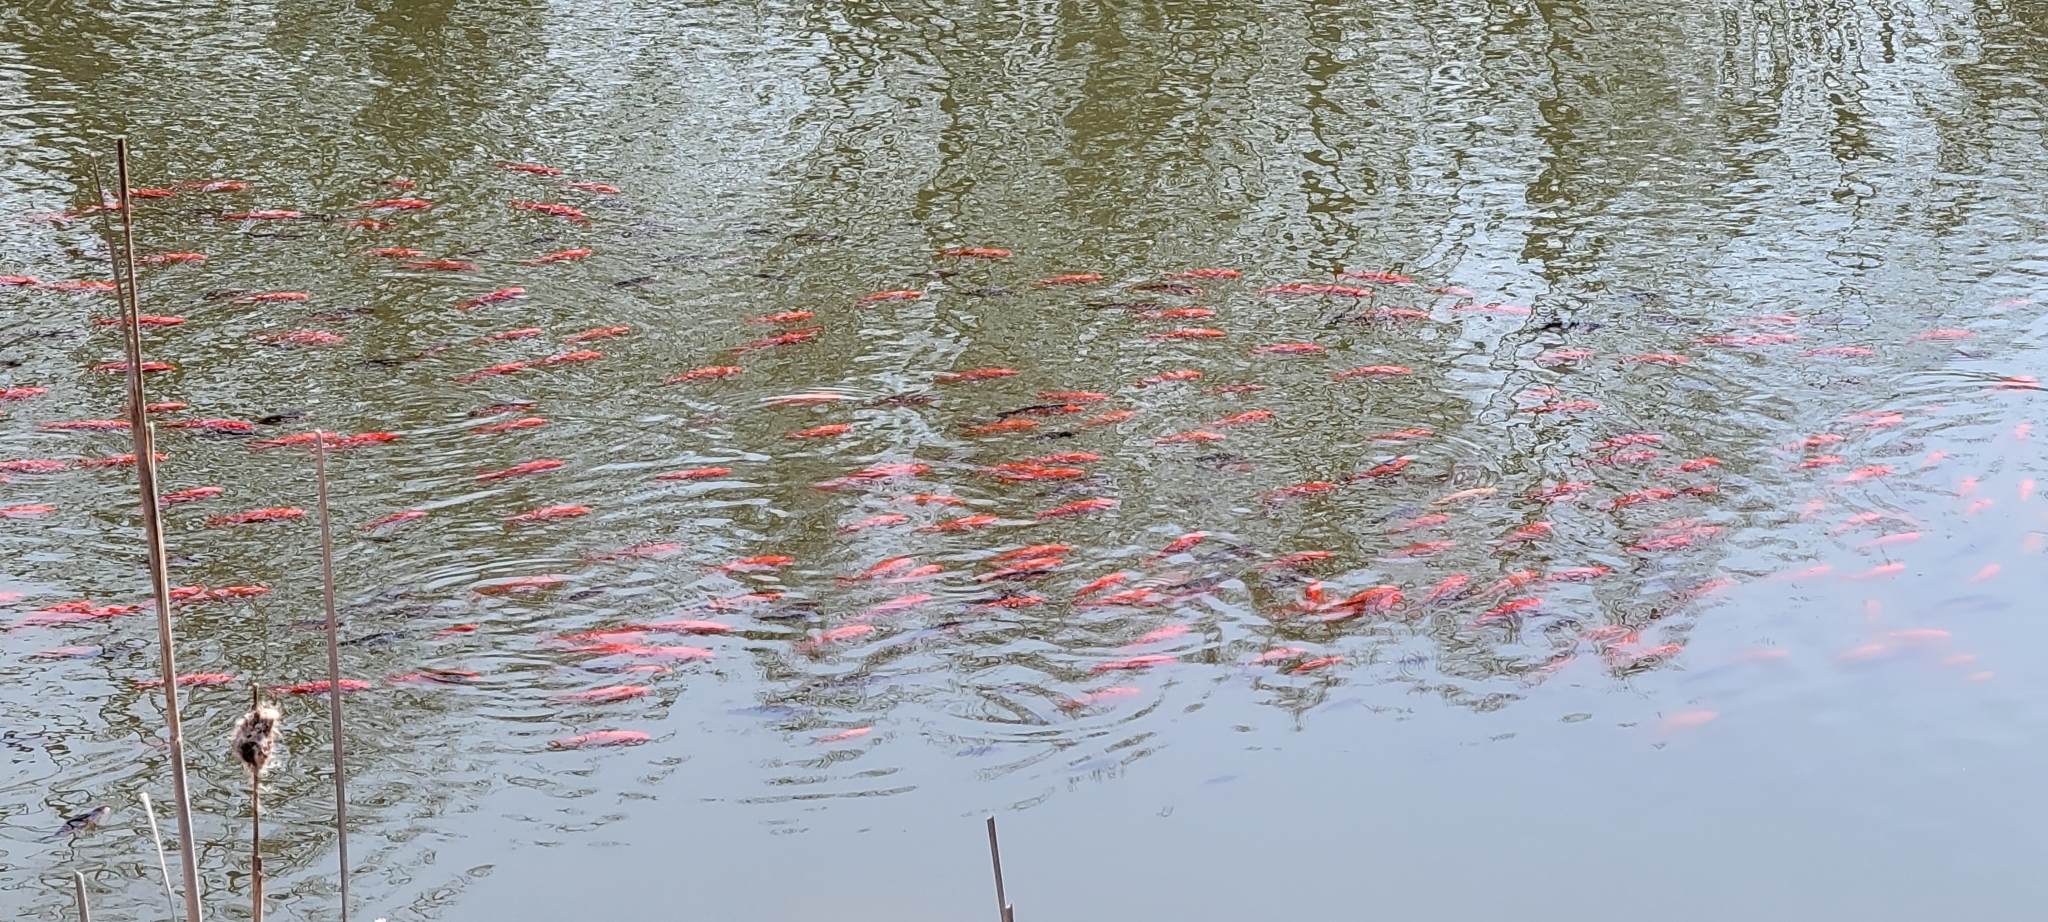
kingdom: Animalia
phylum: Chordata
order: Cypriniformes
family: Cyprinidae
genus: Carassius
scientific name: Carassius auratus
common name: Goldfish
